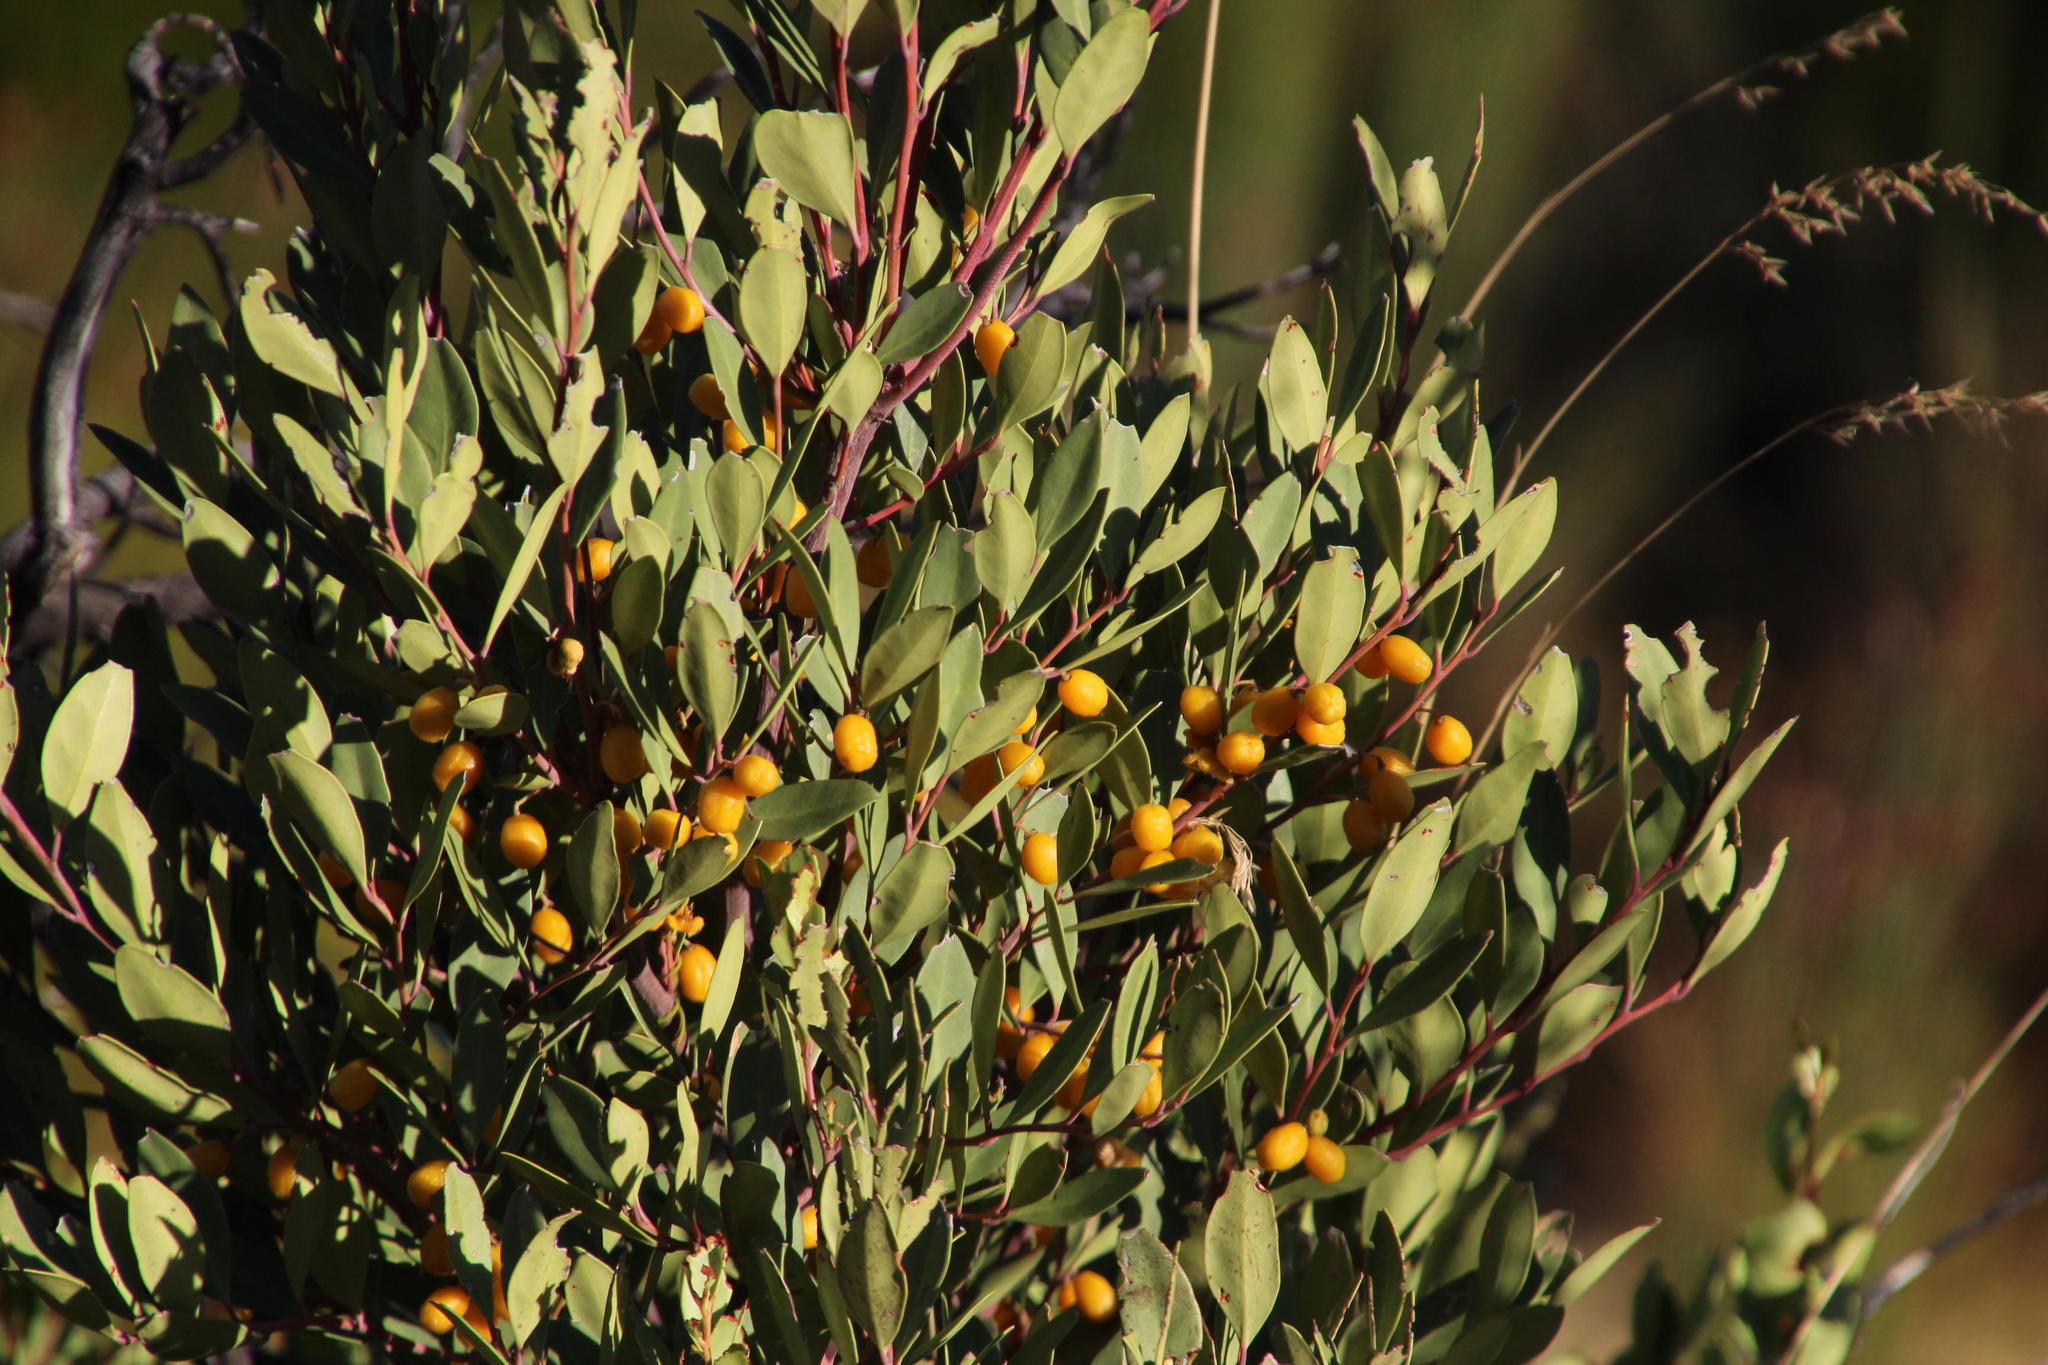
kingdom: Plantae
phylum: Tracheophyta
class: Magnoliopsida
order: Celastrales
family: Celastraceae
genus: Gymnosporia
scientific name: Gymnosporia laurina
